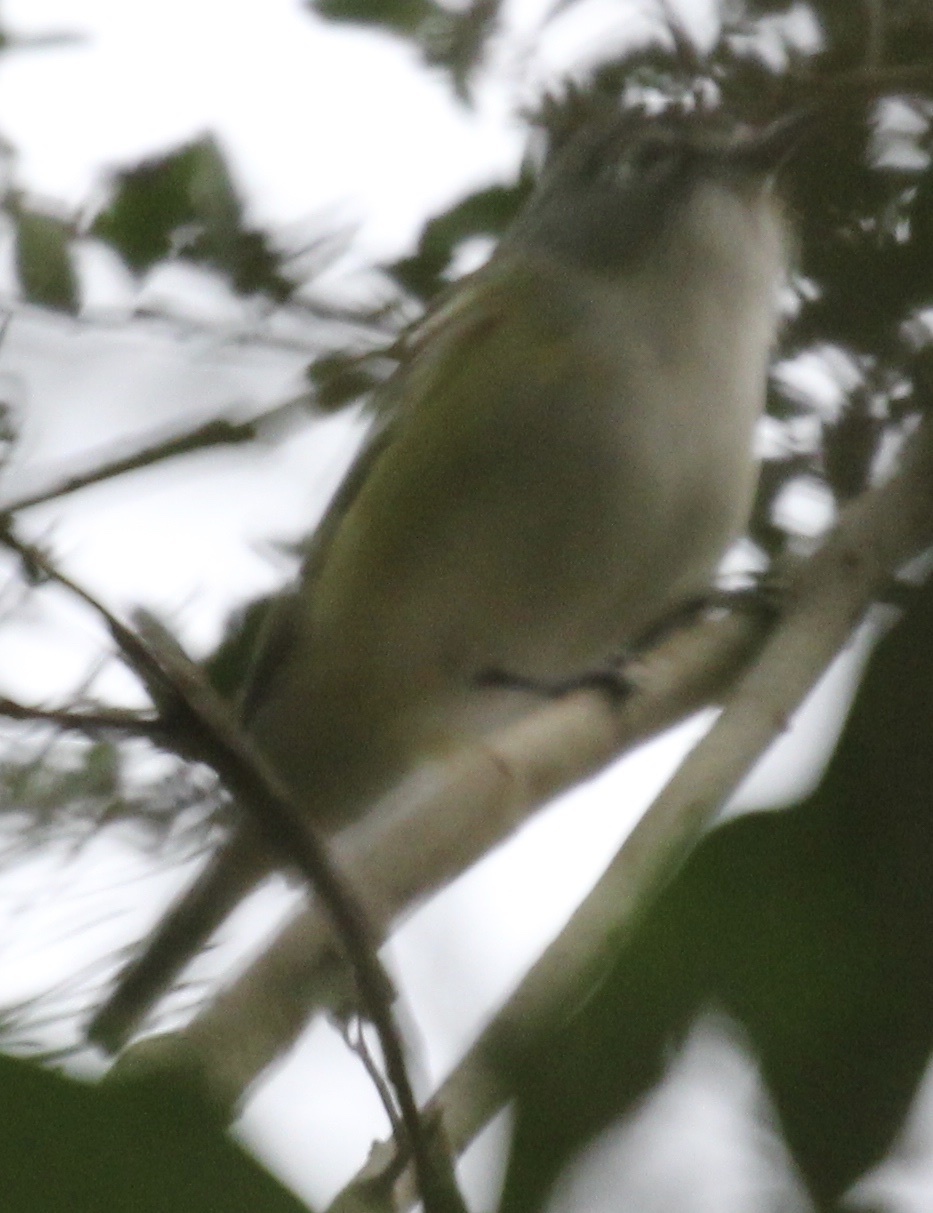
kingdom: Animalia
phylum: Chordata
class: Aves
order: Passeriformes
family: Vireonidae
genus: Vireo
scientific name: Vireo solitarius
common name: Blue-headed vireo
